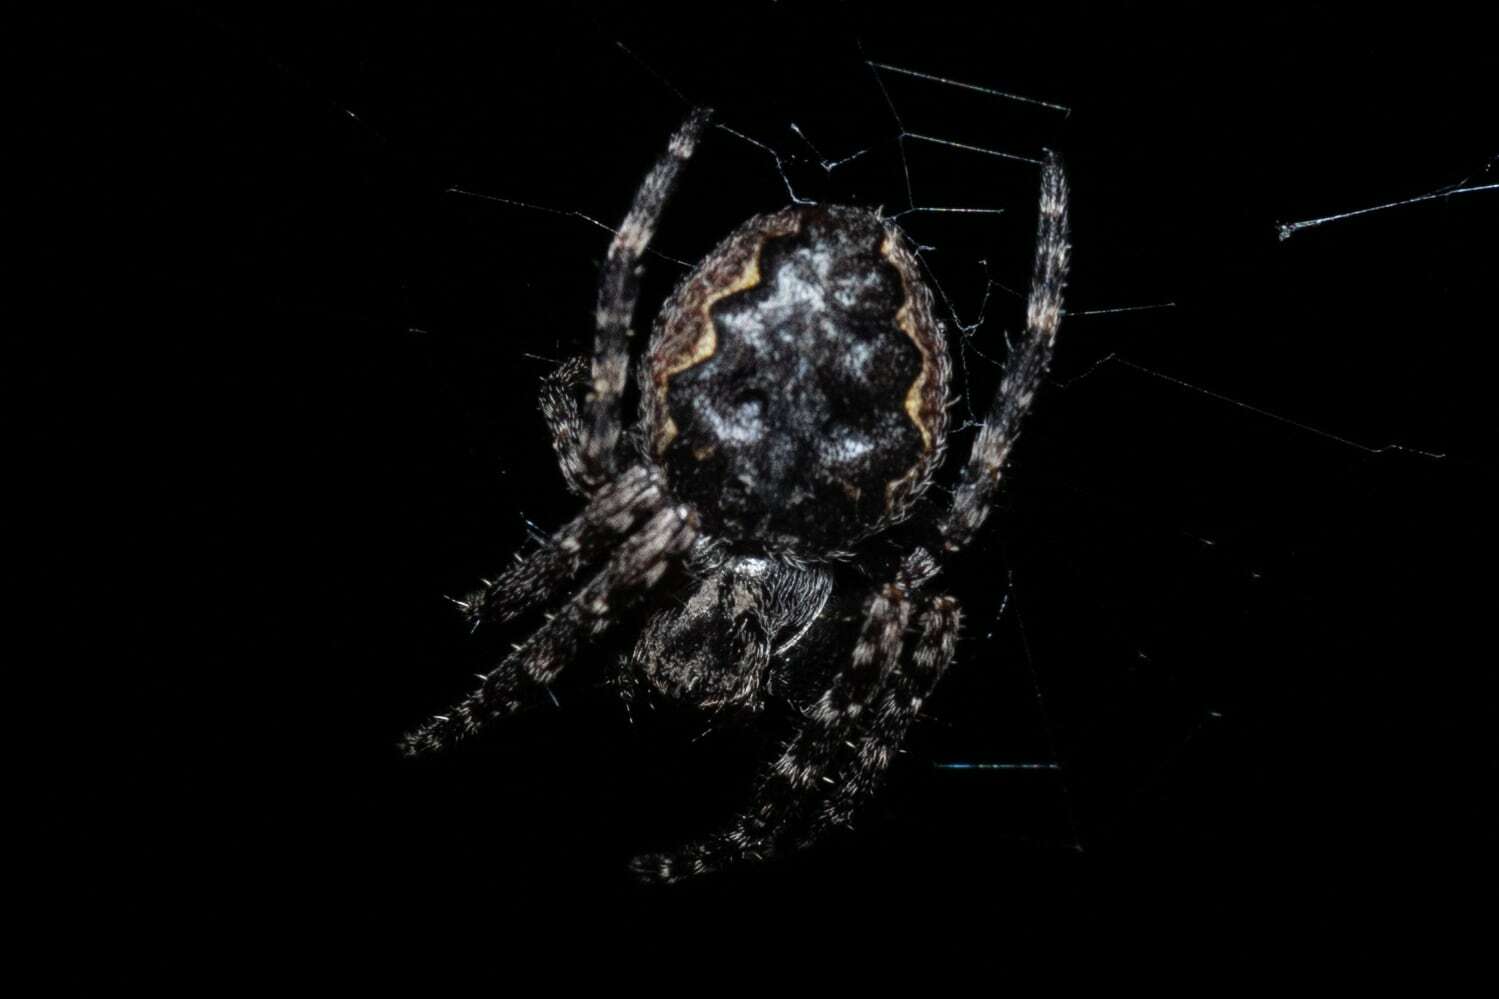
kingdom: Animalia
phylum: Arthropoda
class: Arachnida
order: Araneae
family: Araneidae
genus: Nuctenea
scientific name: Nuctenea umbratica
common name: Toad spider
